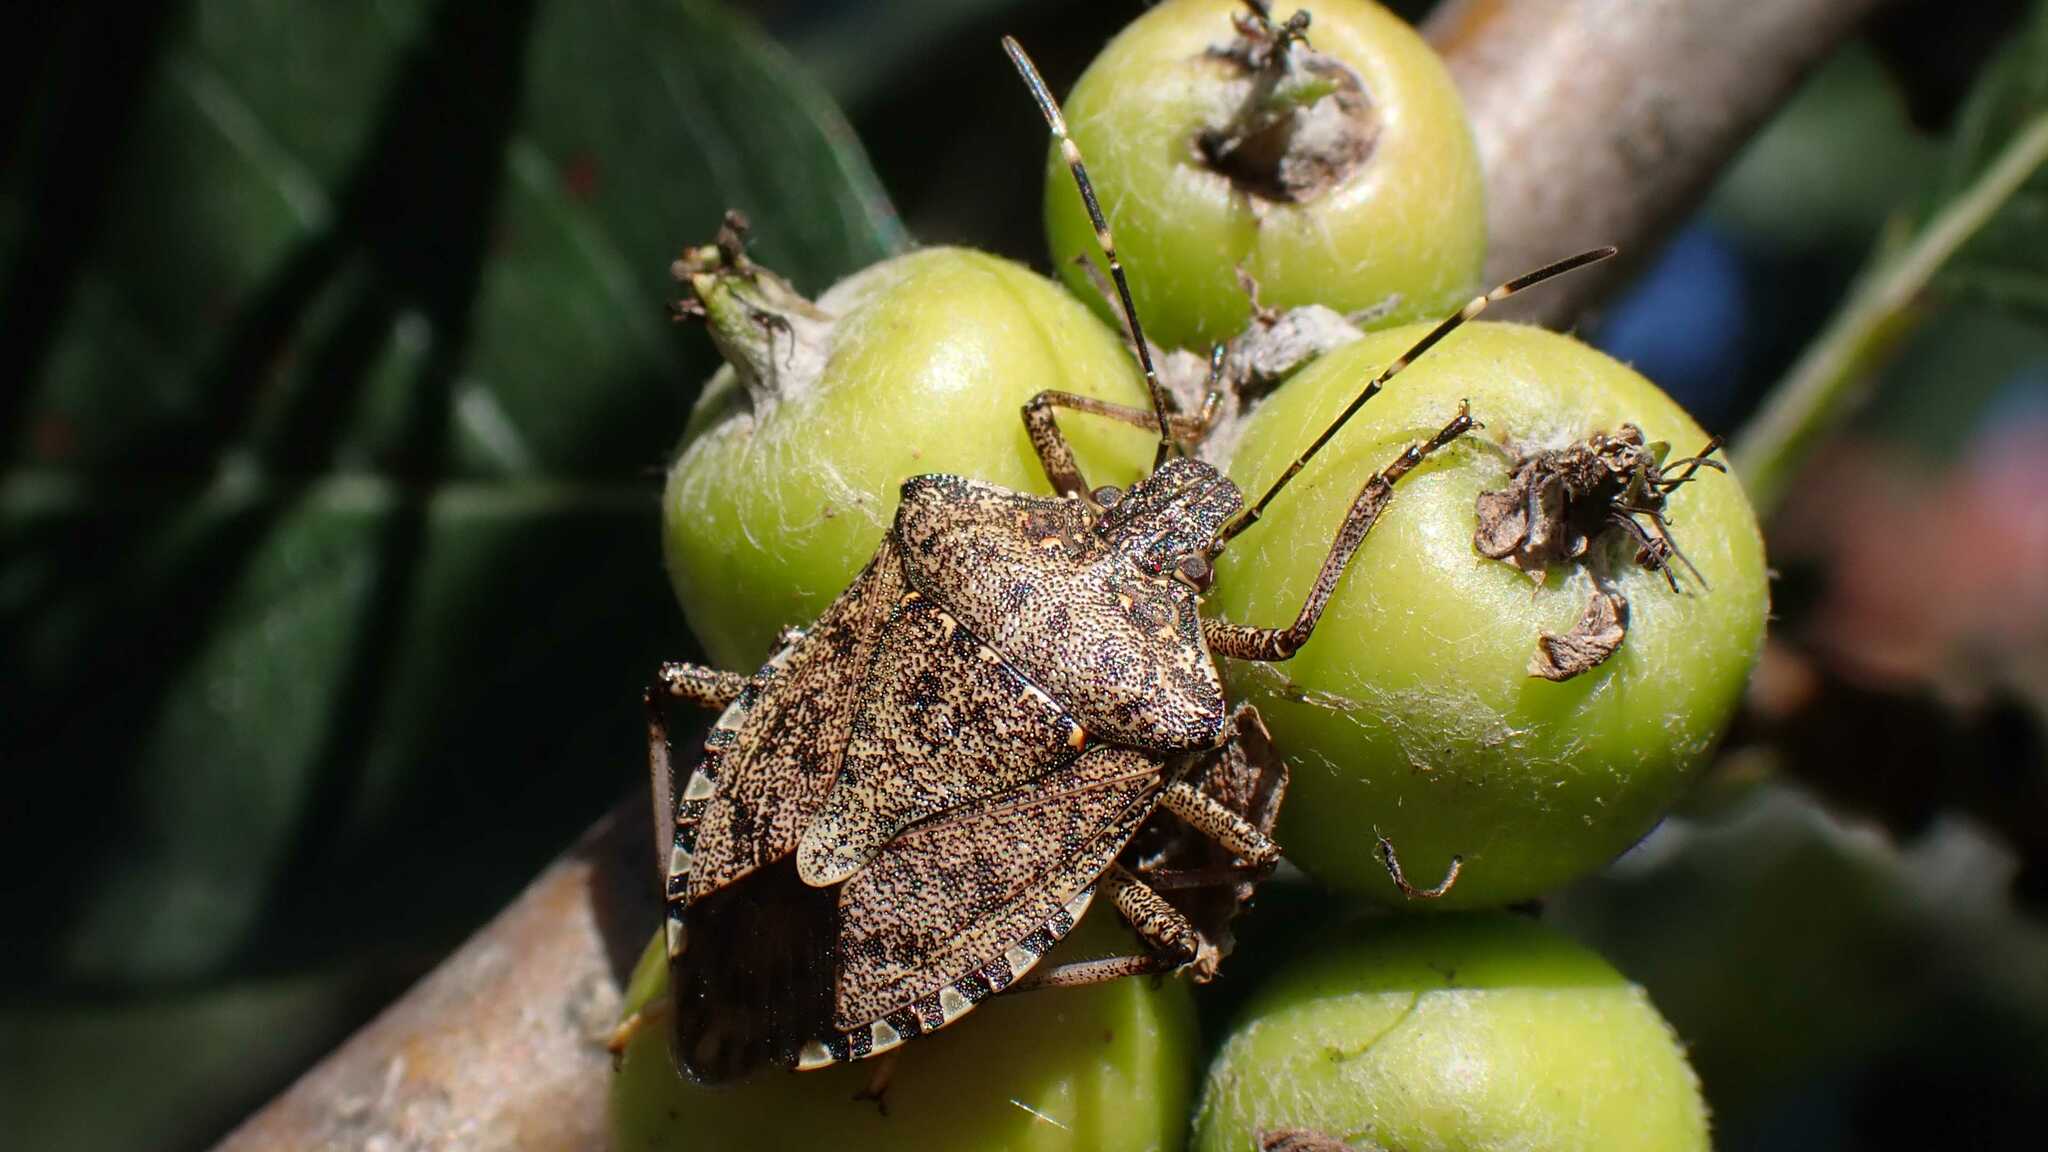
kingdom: Animalia
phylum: Arthropoda
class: Insecta
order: Hemiptera
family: Pentatomidae
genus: Halyomorpha
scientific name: Halyomorpha halys
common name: Brown marmorated stink bug
